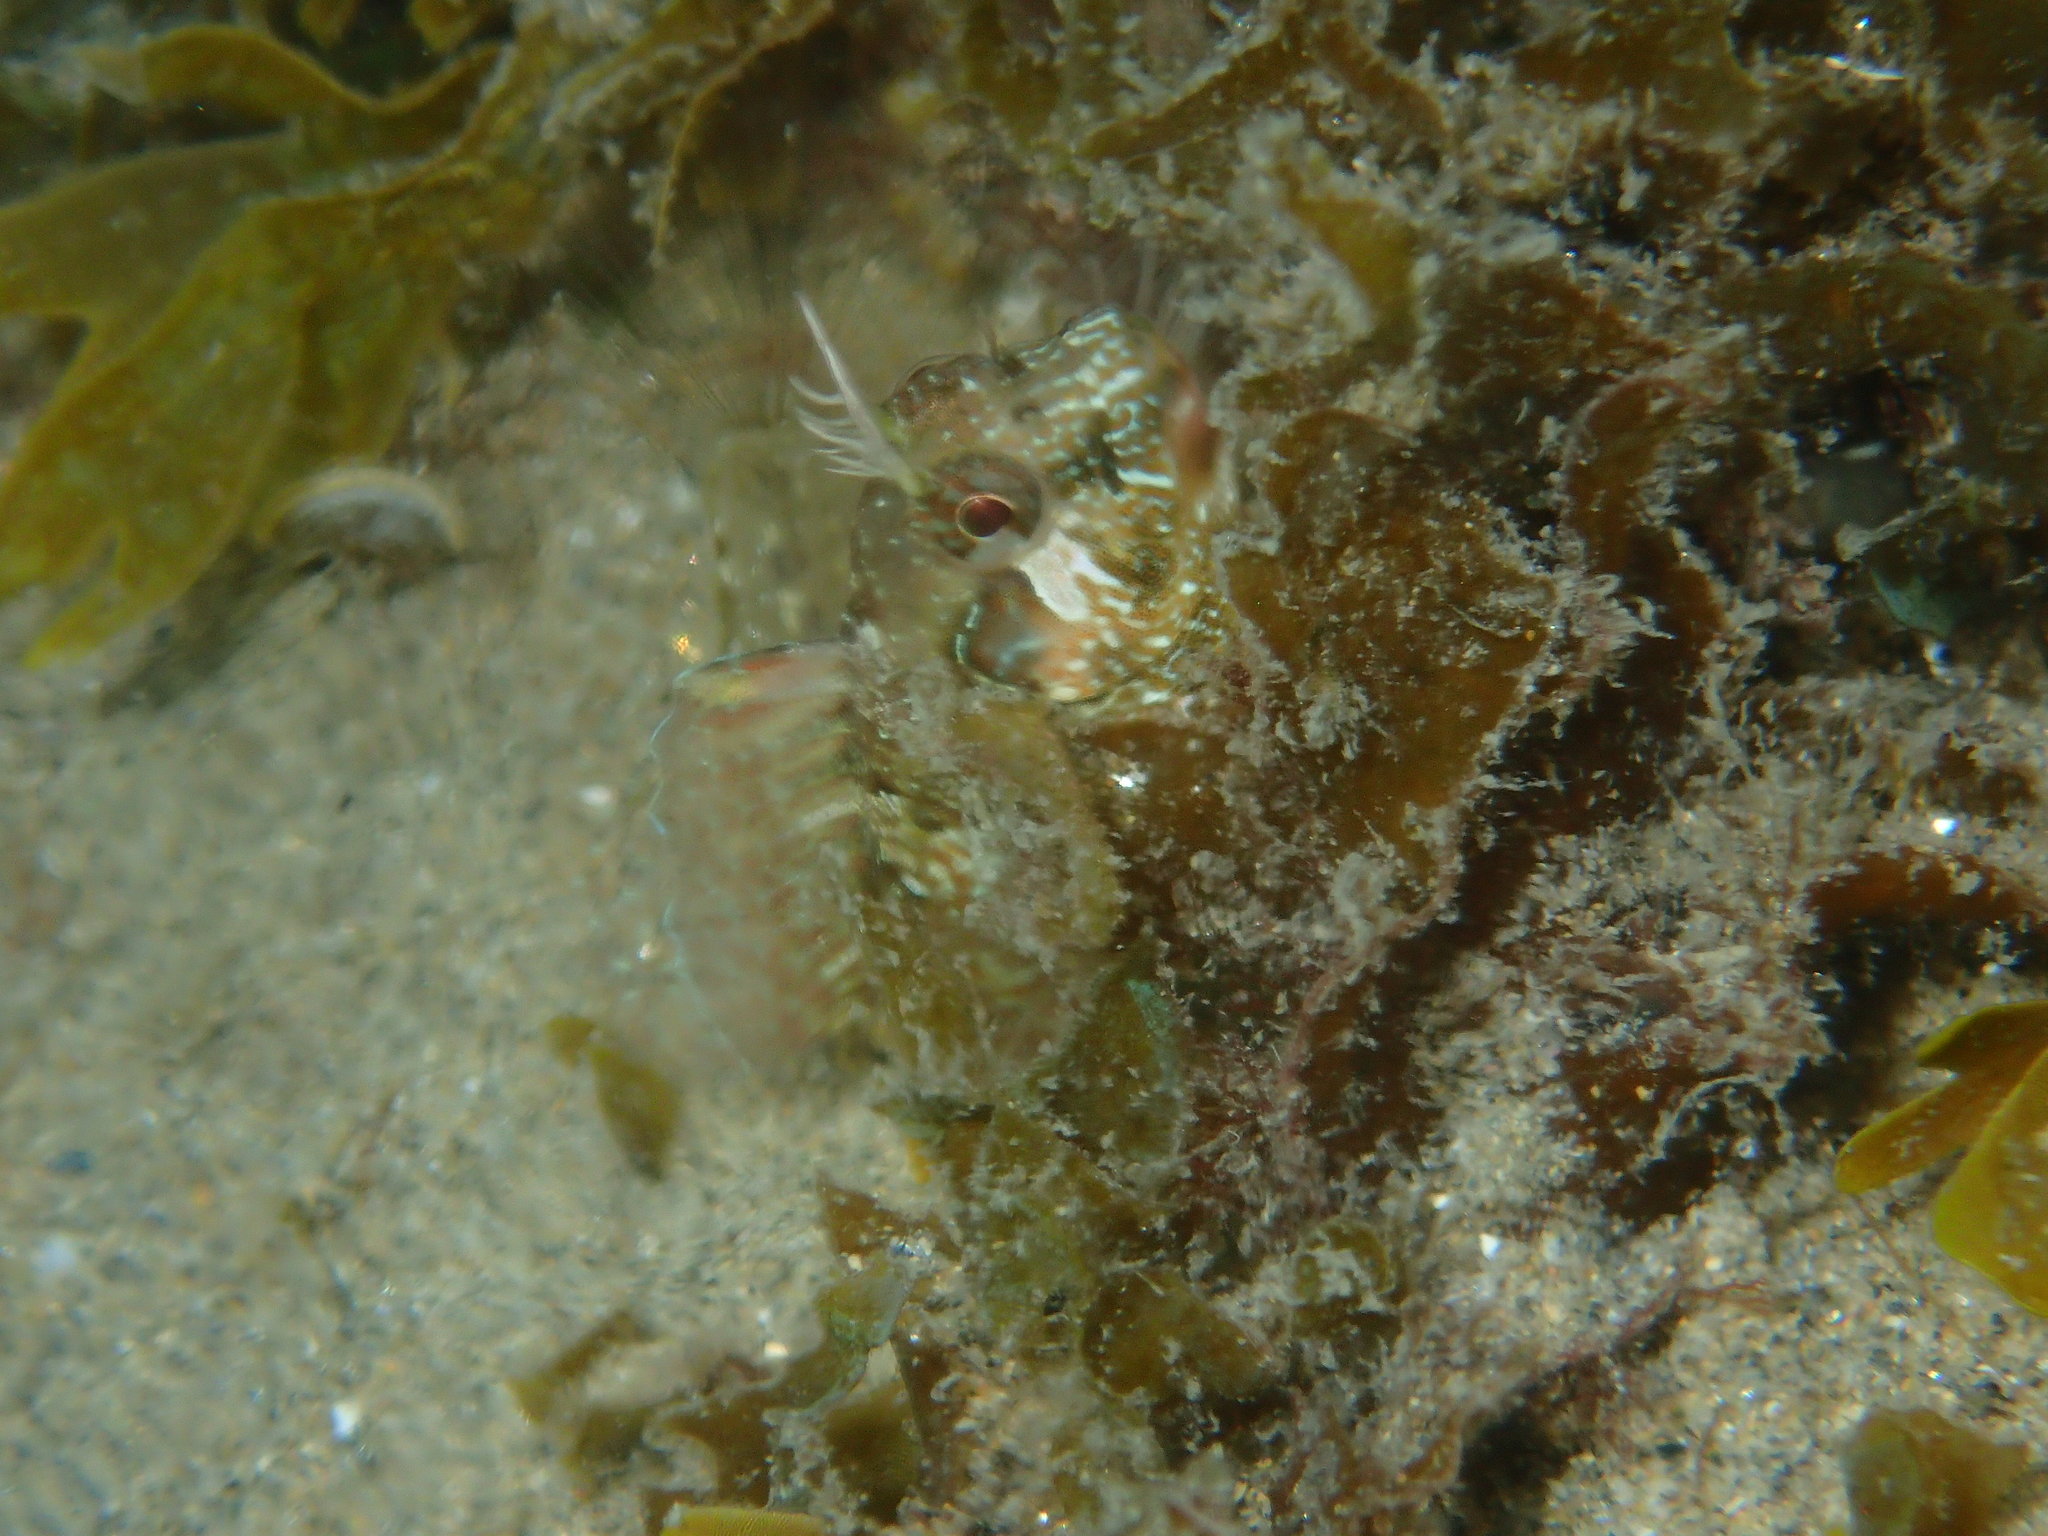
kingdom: Animalia
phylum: Chordata
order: Perciformes
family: Blenniidae
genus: Parablennius
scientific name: Parablennius incognitus
